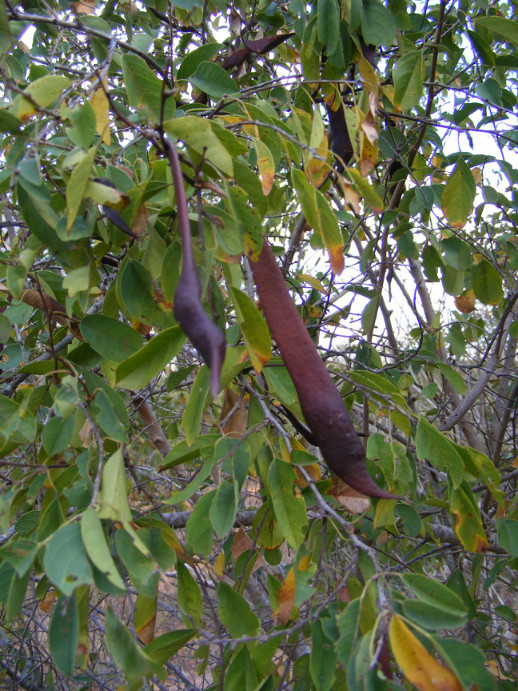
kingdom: Plantae
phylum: Tracheophyta
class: Magnoliopsida
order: Fabales
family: Fabaceae
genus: Baphia
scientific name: Baphia massaiensis
